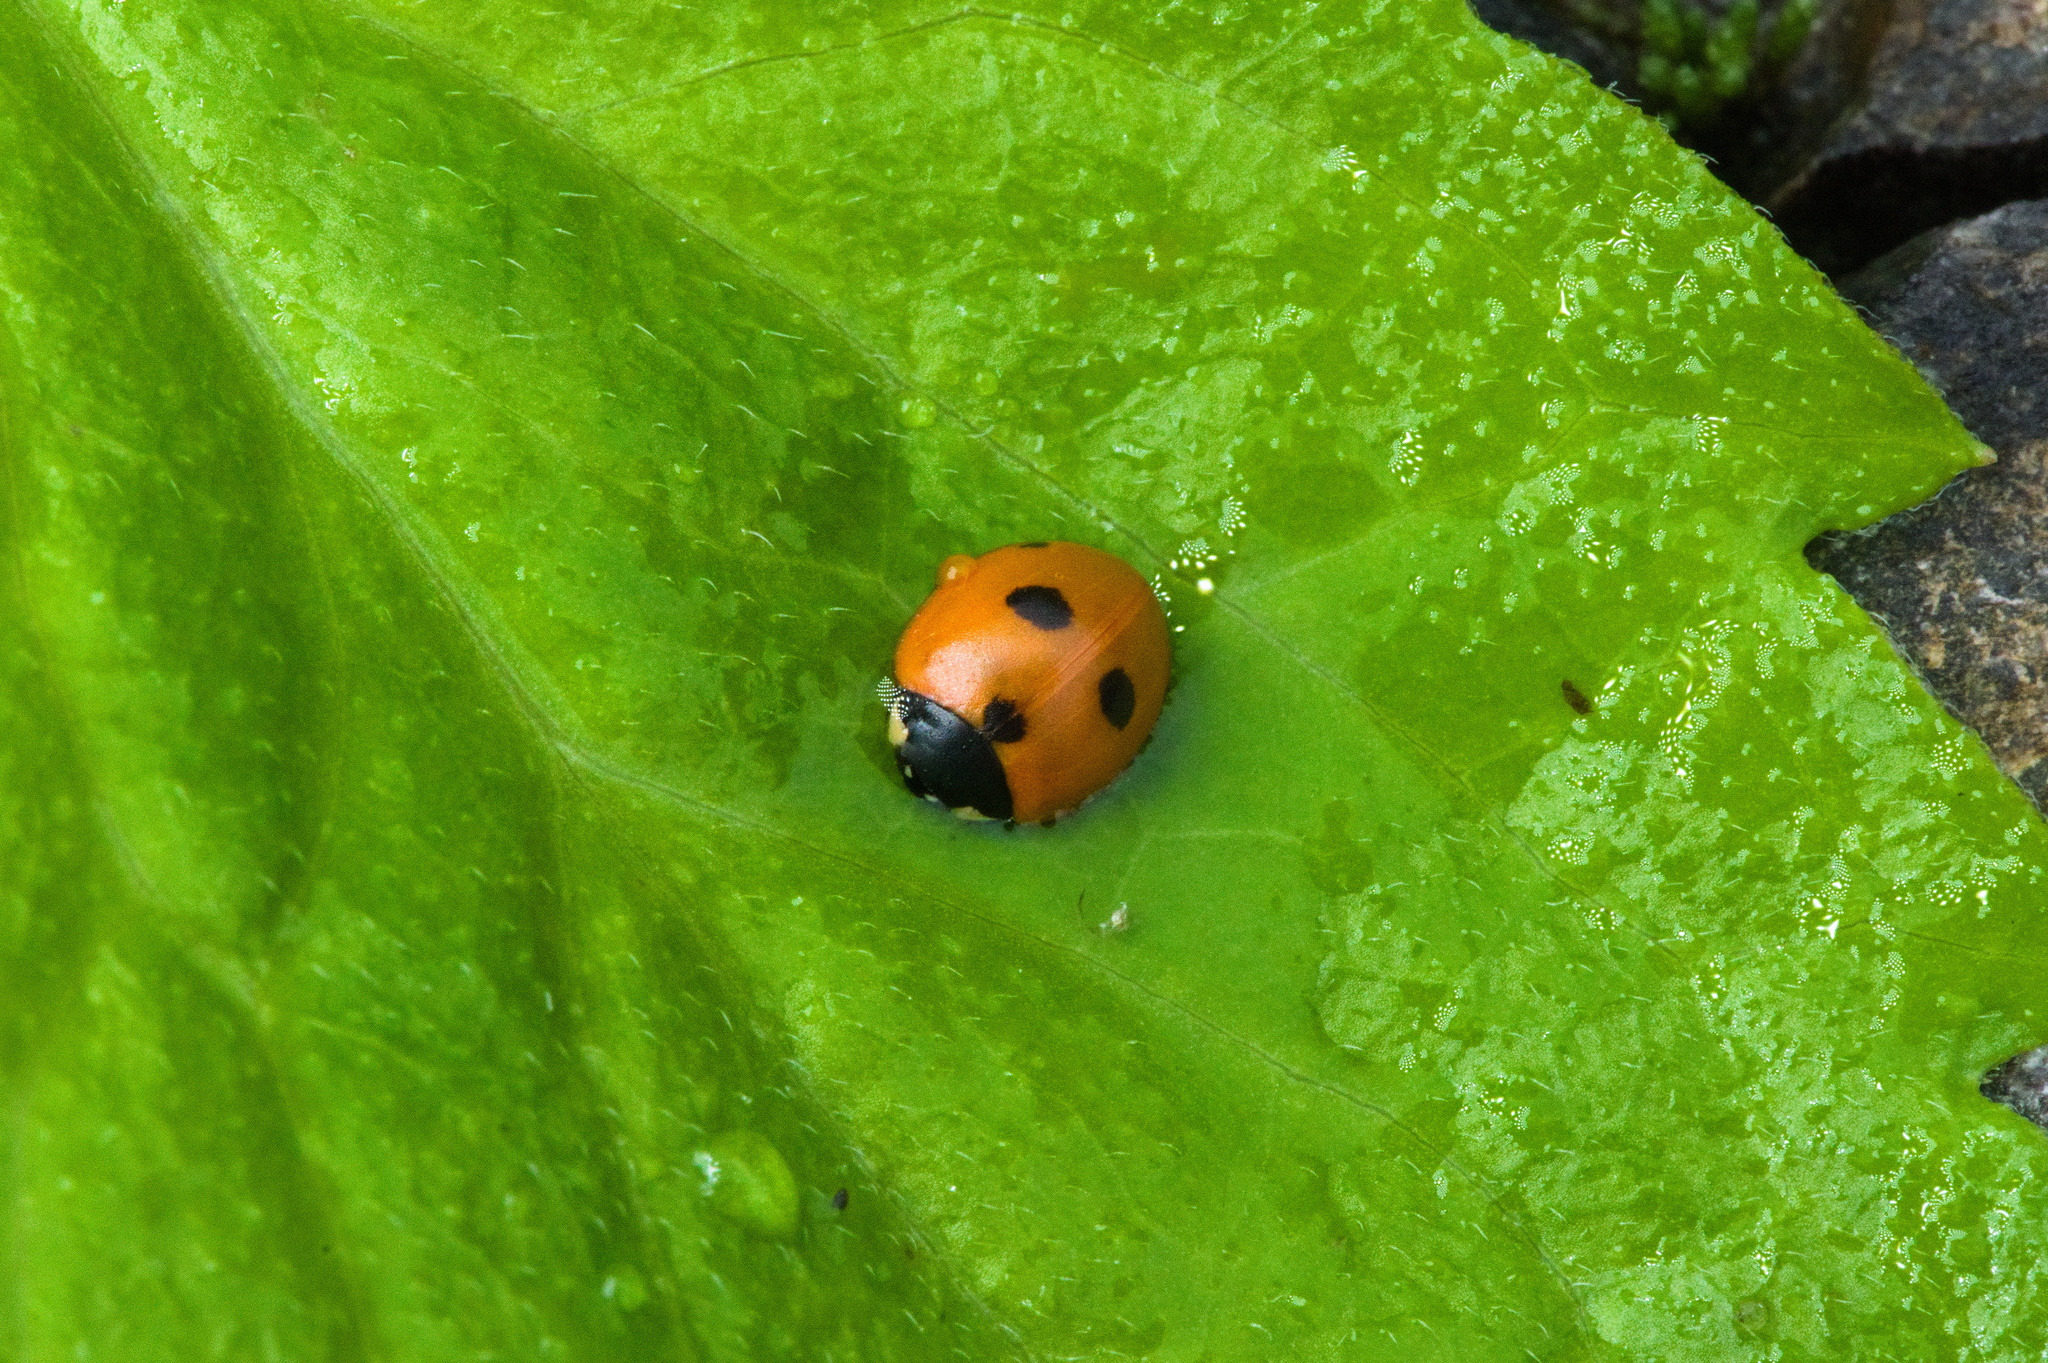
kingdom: Animalia
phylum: Arthropoda
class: Insecta
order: Coleoptera
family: Coccinellidae
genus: Coccinella
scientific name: Coccinella quinquepunctata
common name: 5-spot ladybird
